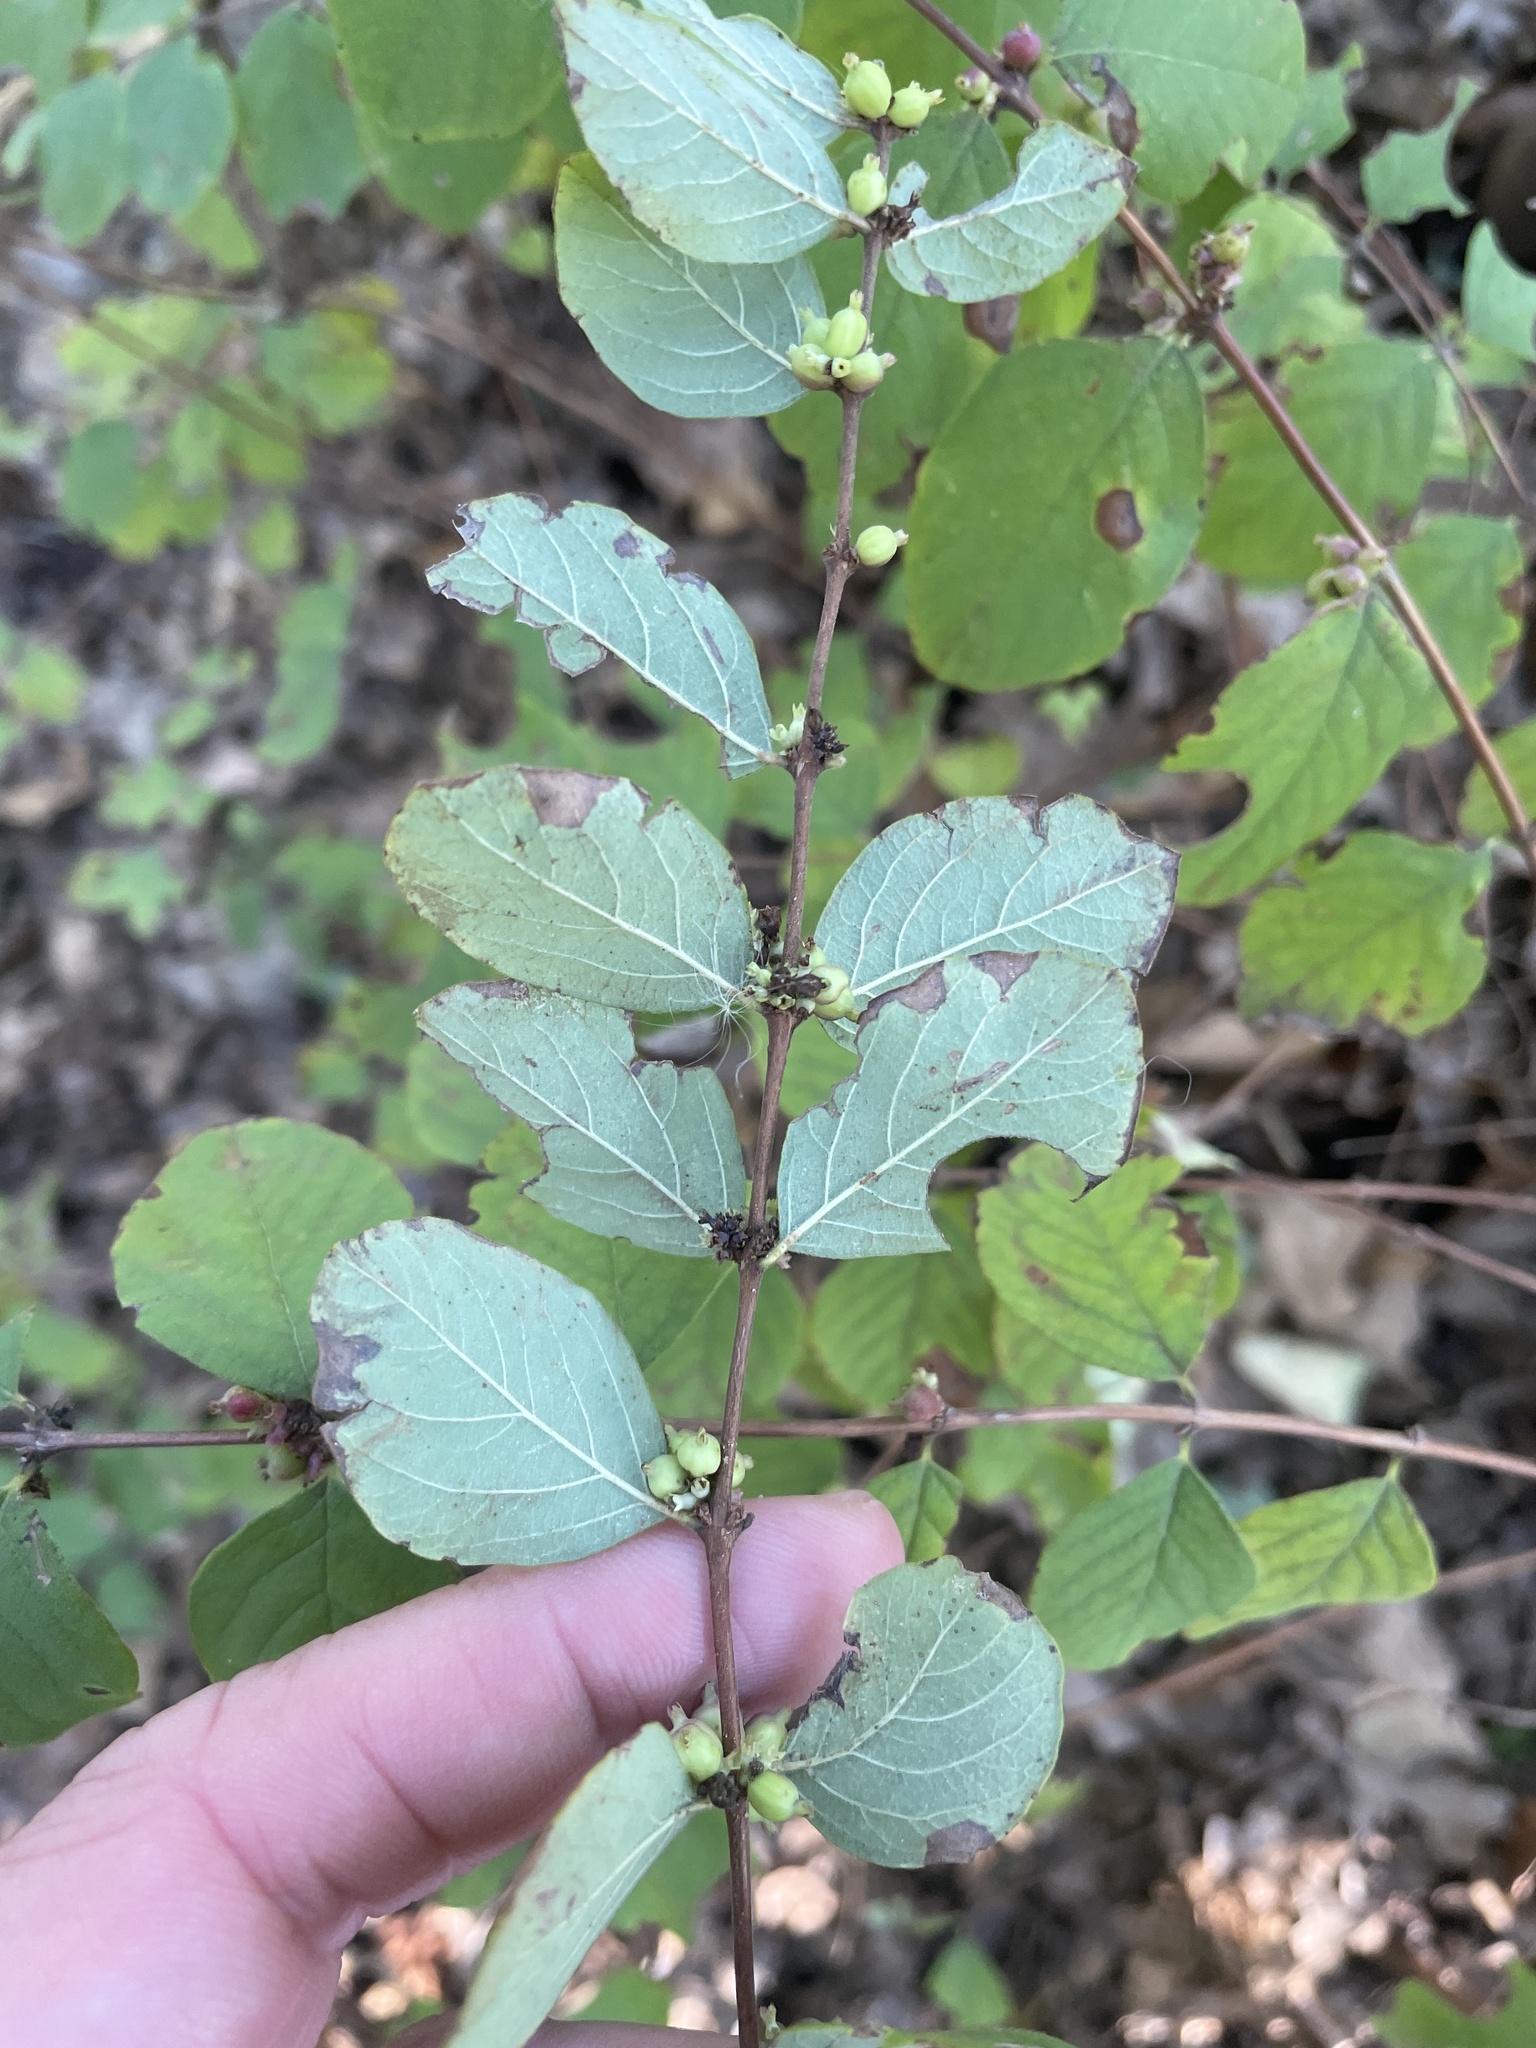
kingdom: Plantae
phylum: Tracheophyta
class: Magnoliopsida
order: Dipsacales
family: Caprifoliaceae
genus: Symphoricarpos
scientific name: Symphoricarpos orbiculatus
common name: Coralberry
